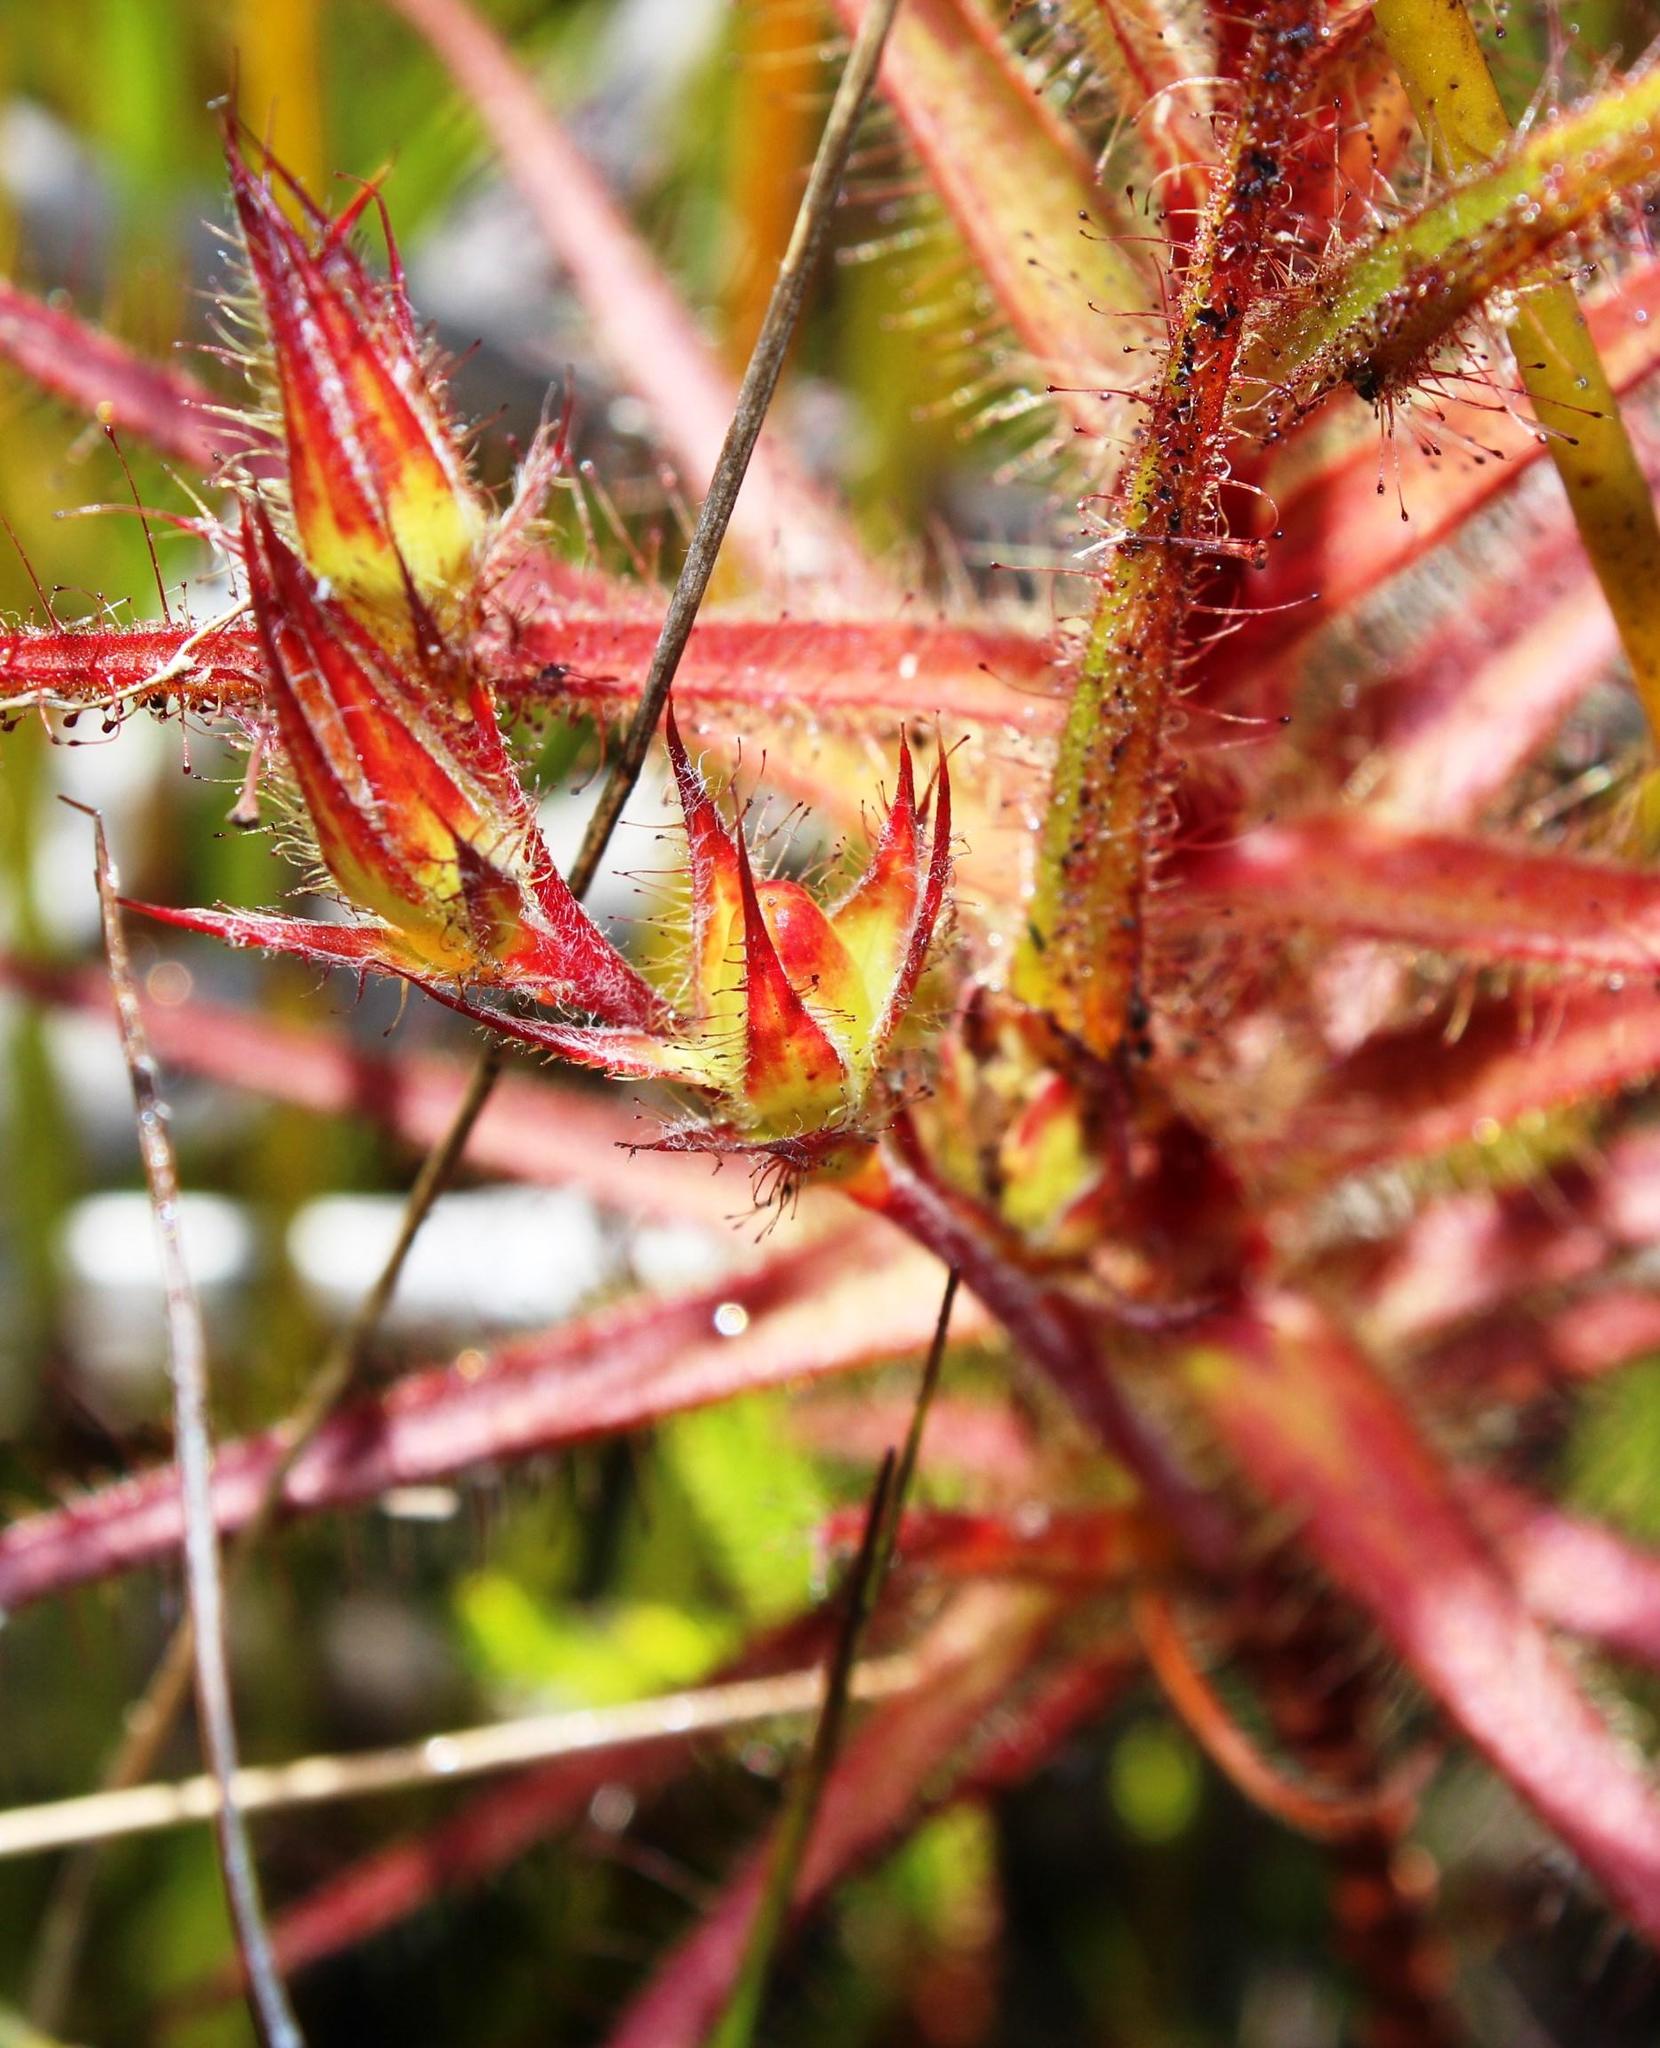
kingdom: Plantae
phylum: Tracheophyta
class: Magnoliopsida
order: Ericales
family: Roridulaceae
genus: Roridula
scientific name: Roridula gorgonias
